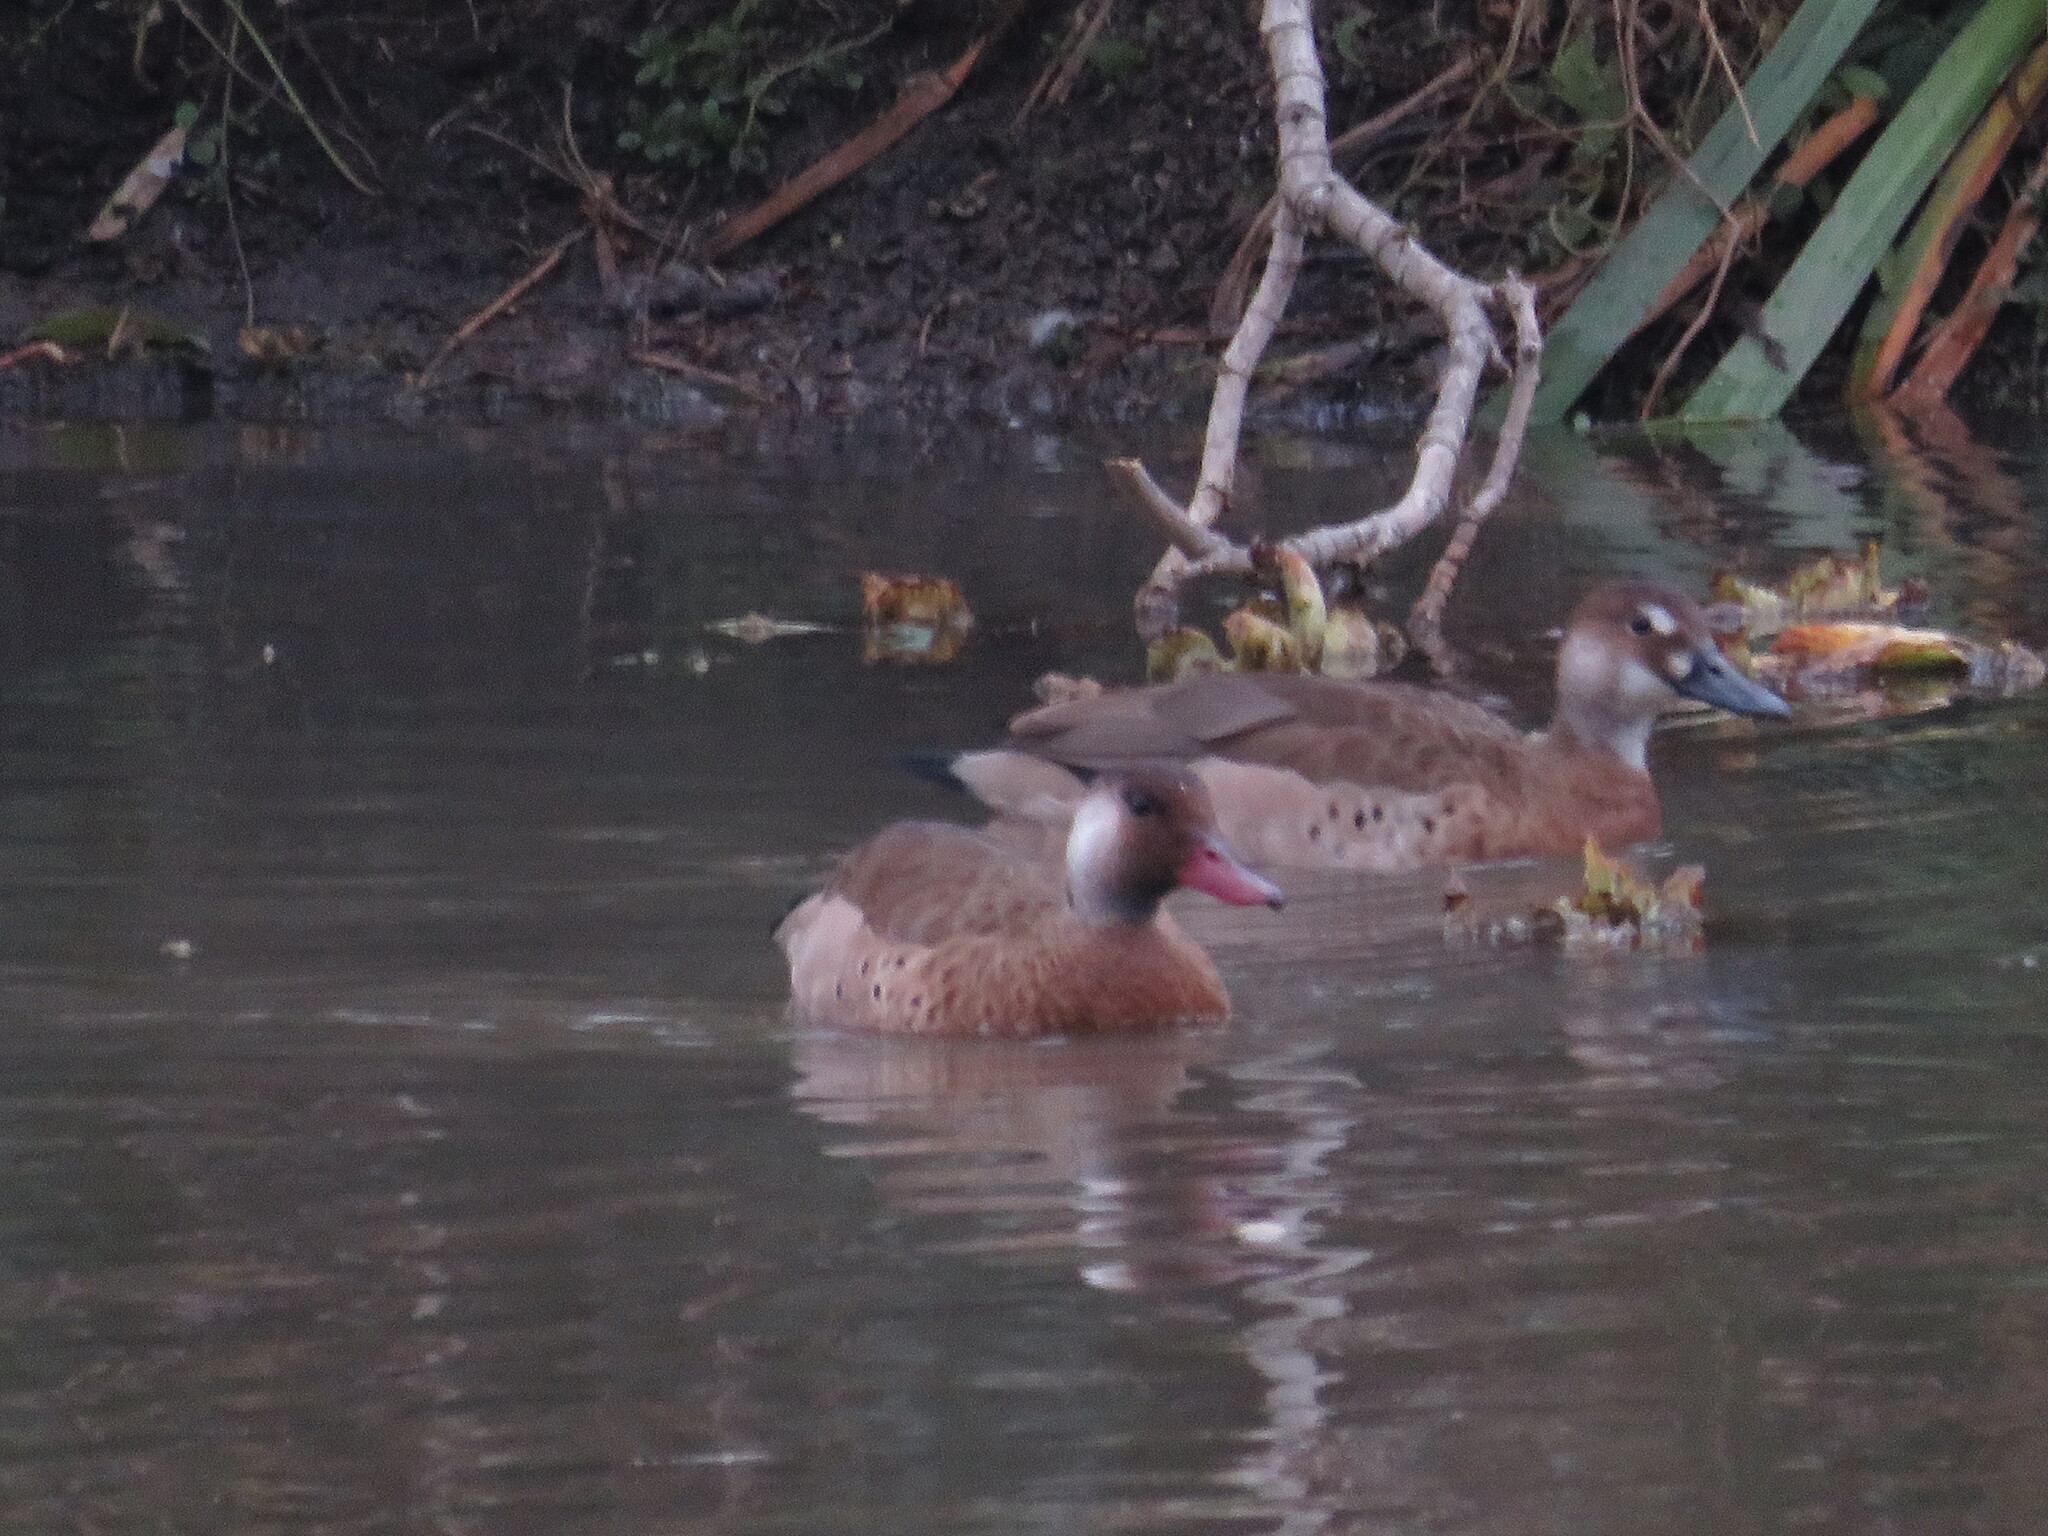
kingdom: Animalia
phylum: Chordata
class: Aves
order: Anseriformes
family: Anatidae
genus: Amazonetta
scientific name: Amazonetta brasiliensis
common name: Brazilian teal
